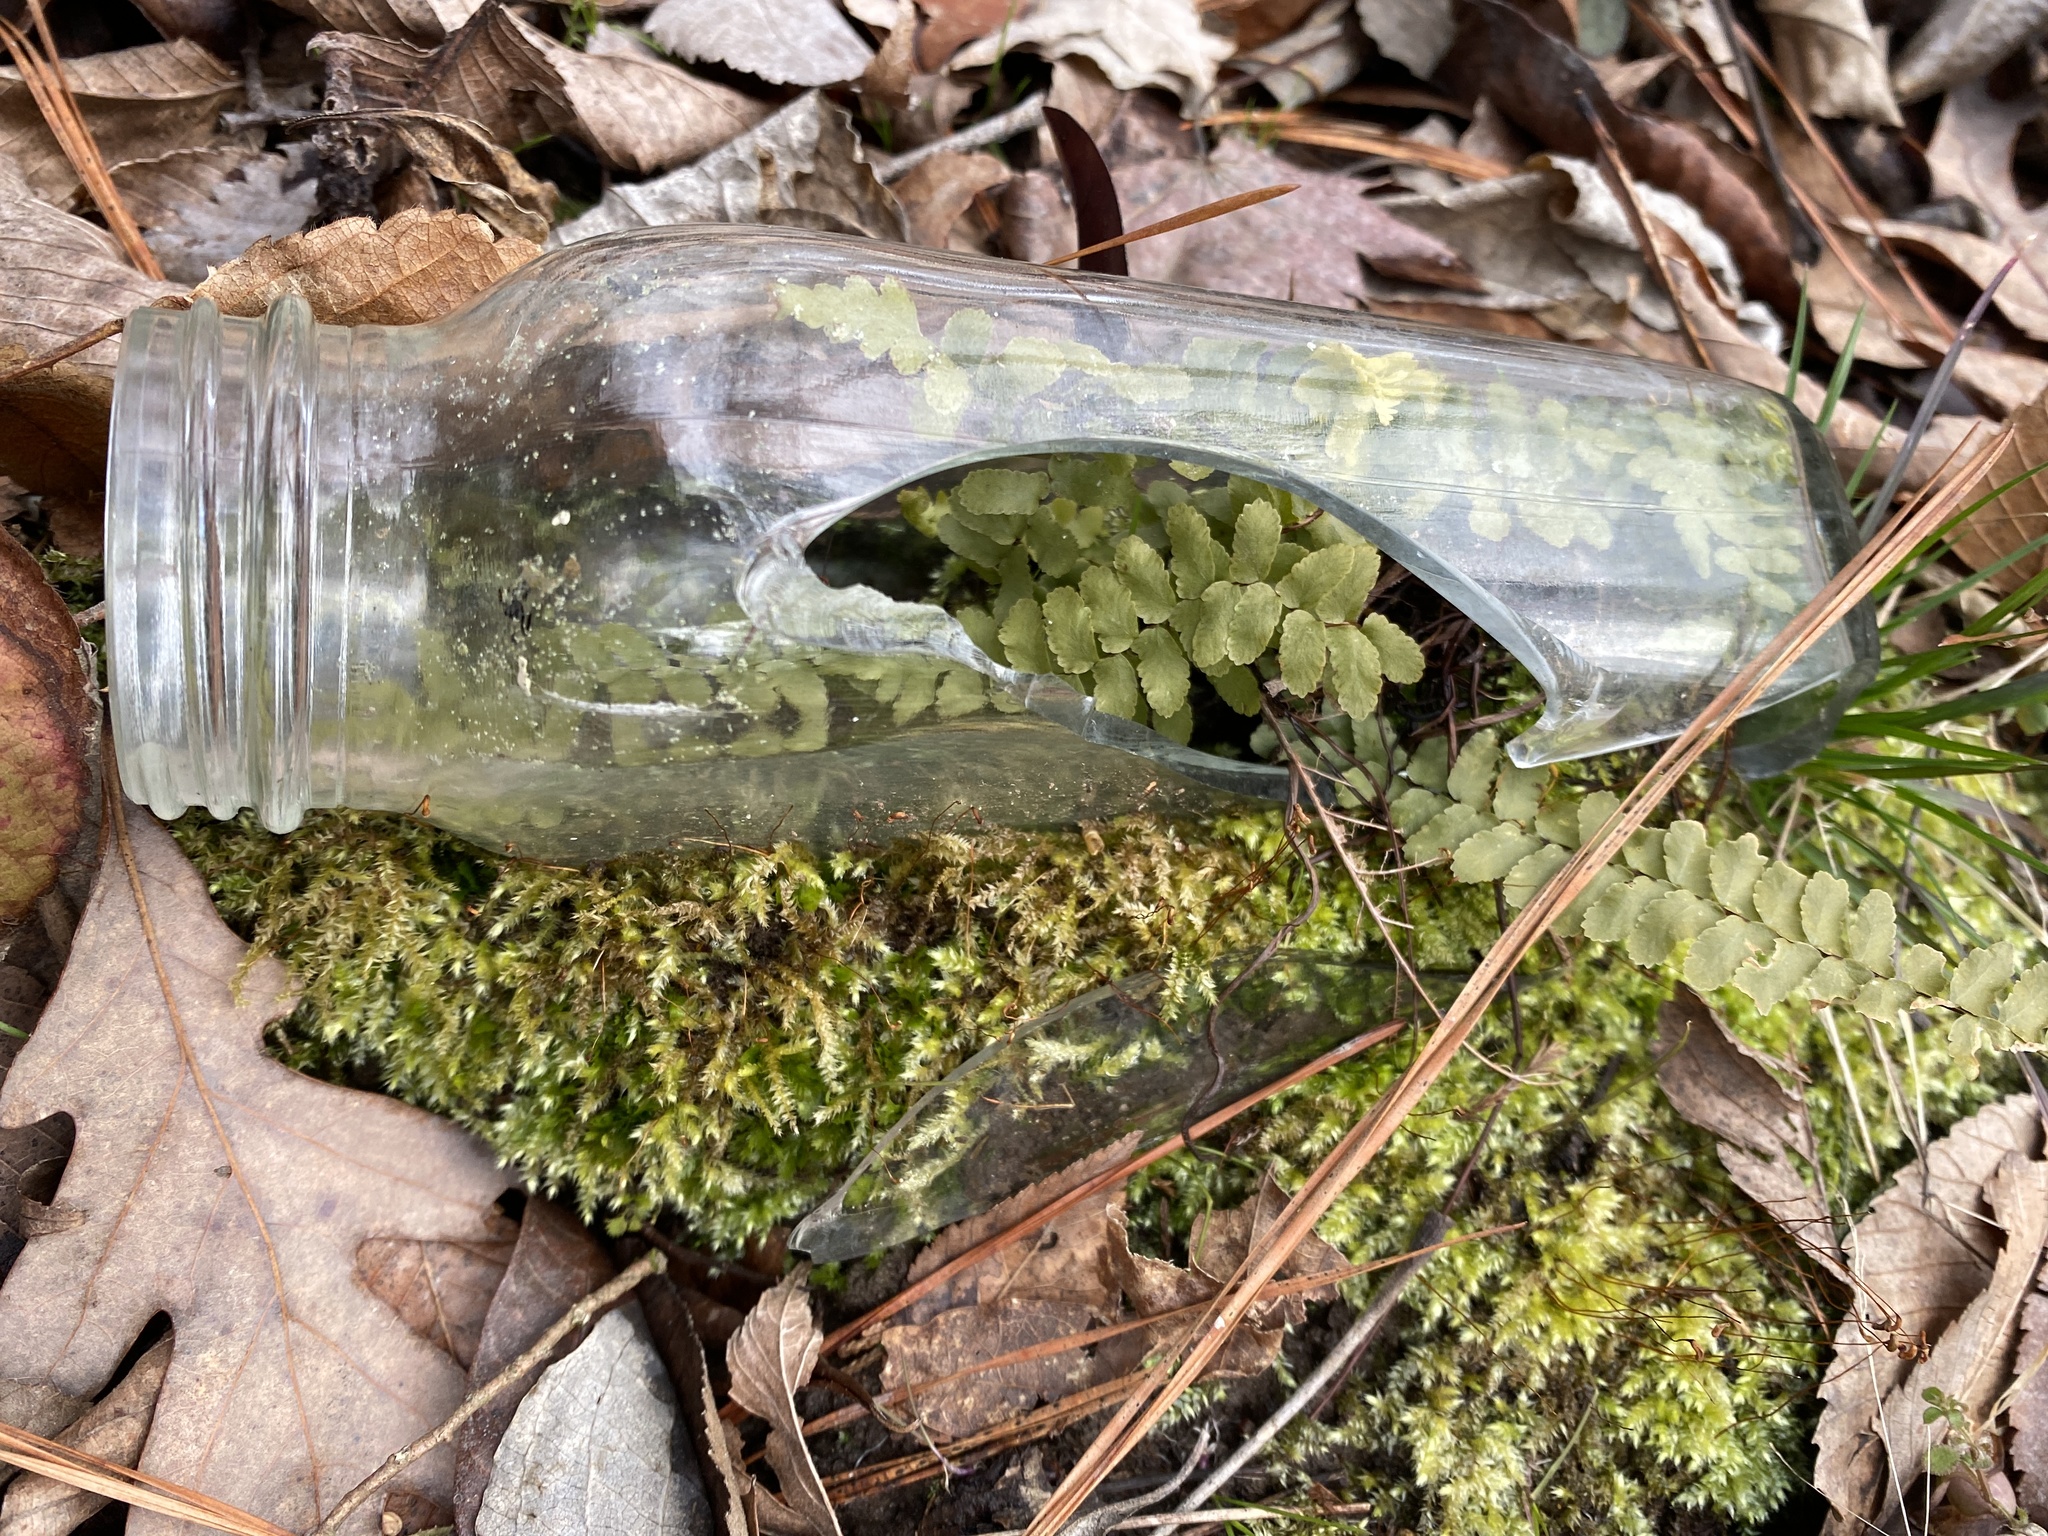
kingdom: Plantae
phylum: Tracheophyta
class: Polypodiopsida
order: Polypodiales
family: Aspleniaceae
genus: Asplenium
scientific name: Asplenium platyneuron
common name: Ebony spleenwort
